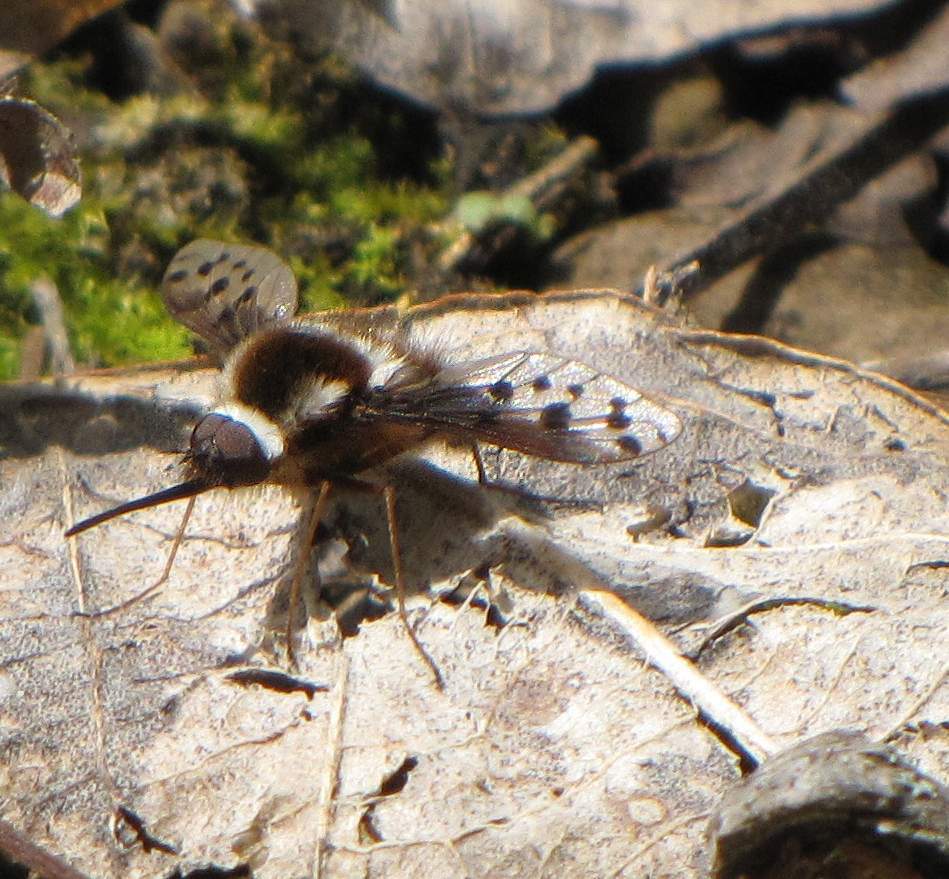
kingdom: Animalia
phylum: Arthropoda
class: Insecta
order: Diptera
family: Bombyliidae
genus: Bombylius
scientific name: Bombylius pygmaeus
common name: Pygmy bee fly
